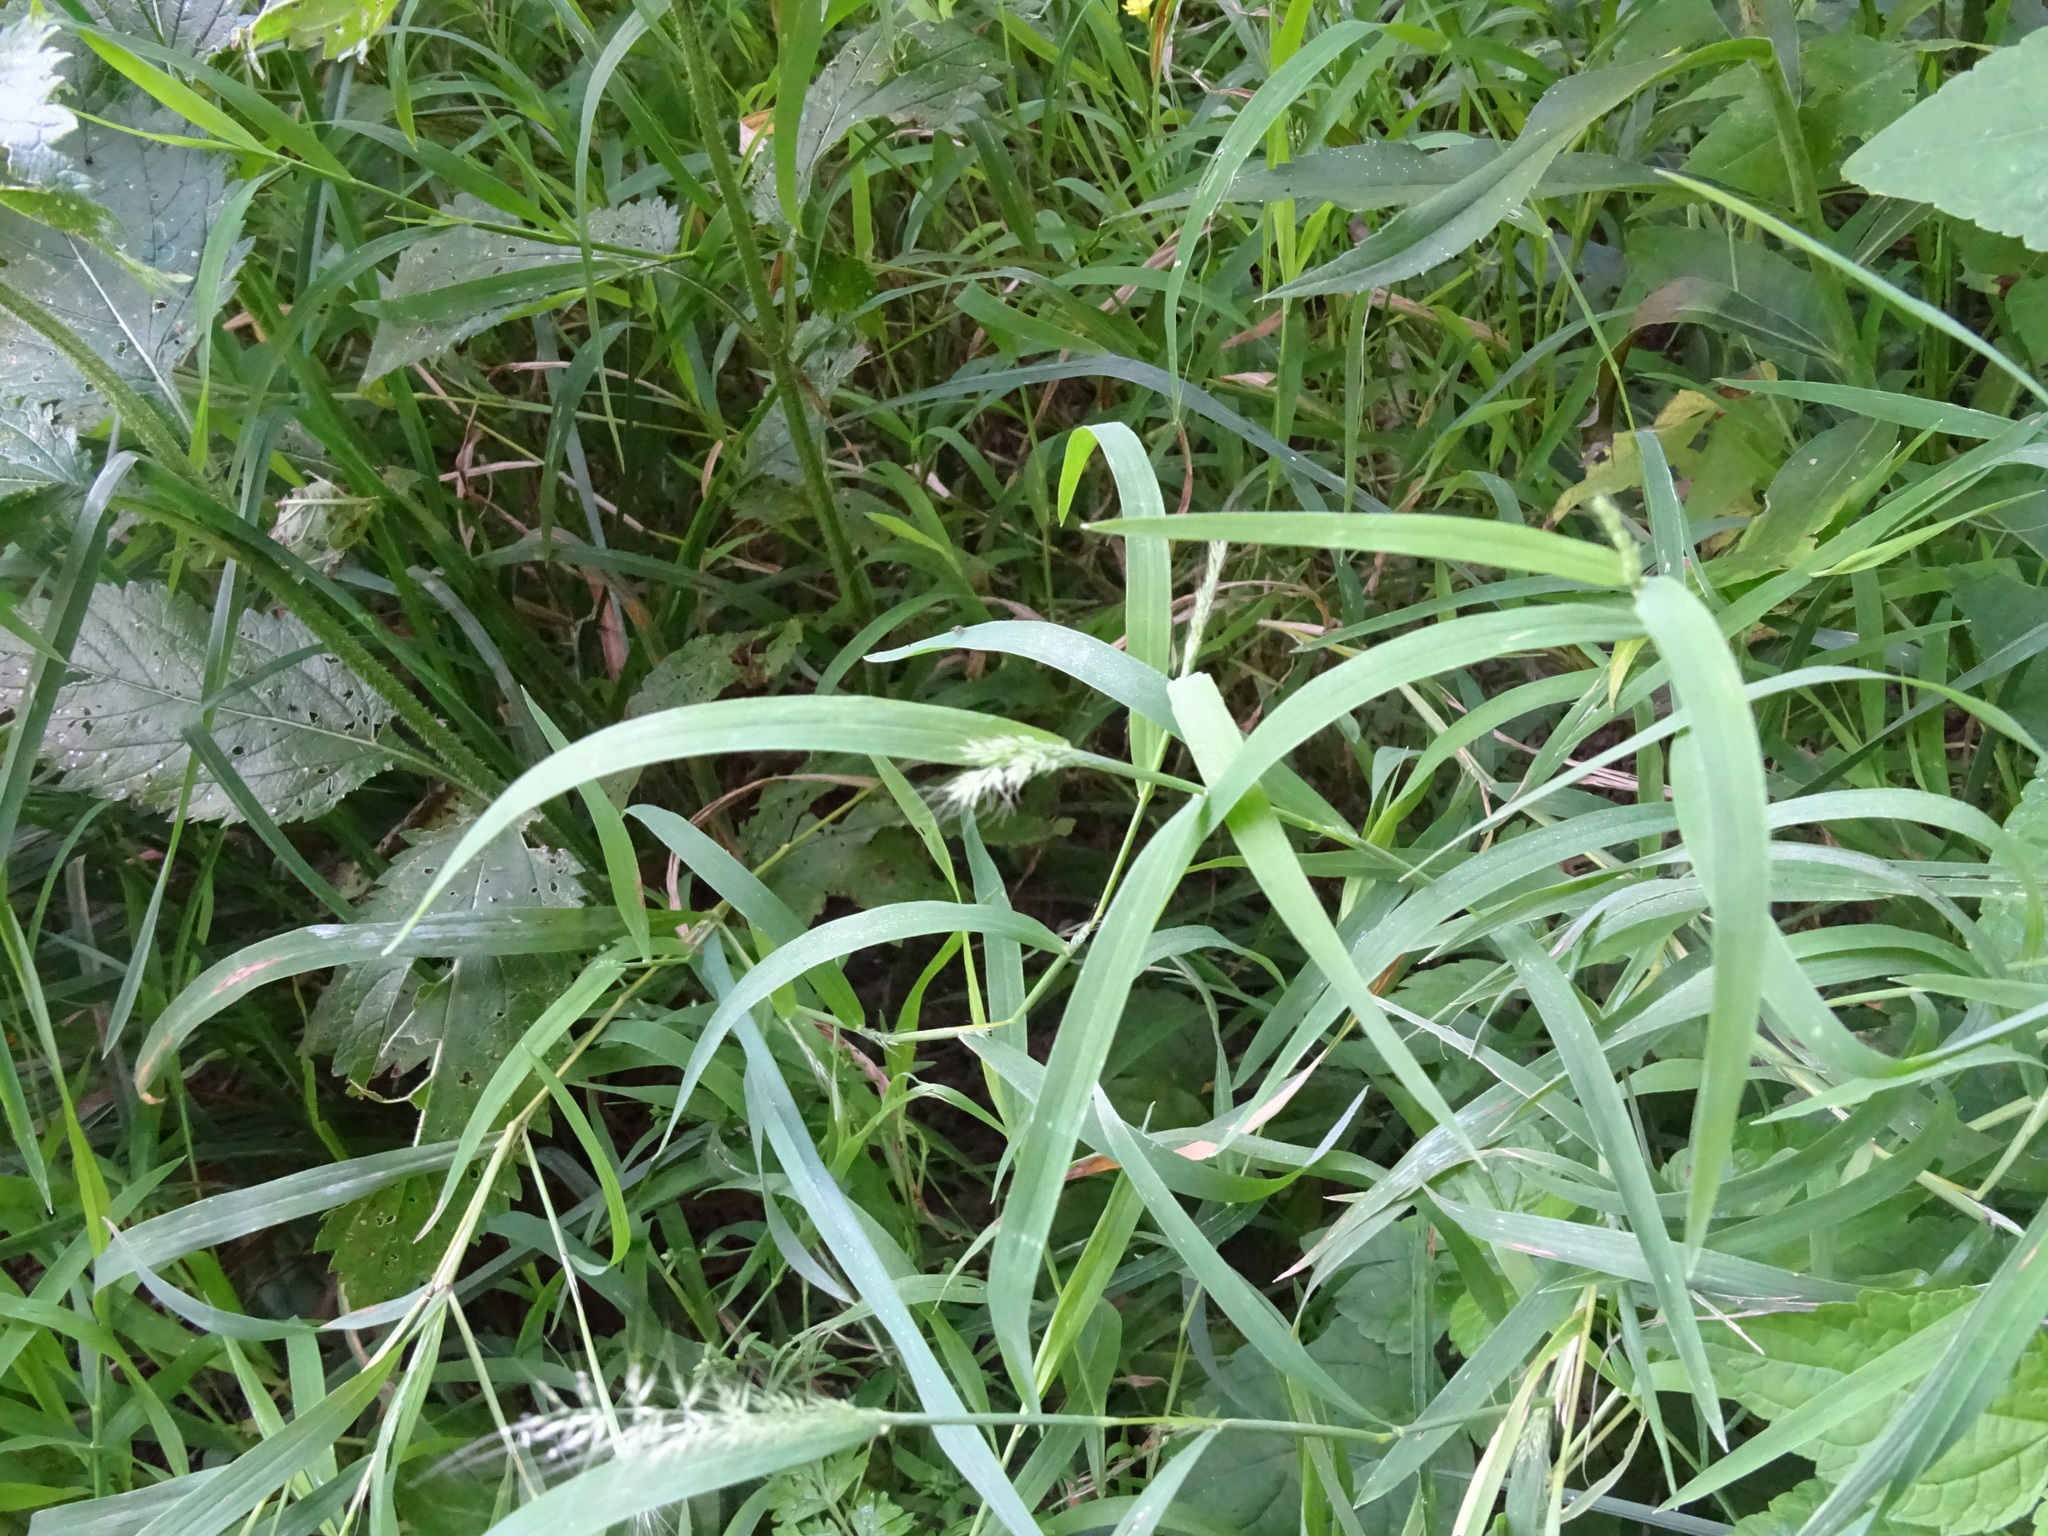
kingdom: Plantae
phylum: Tracheophyta
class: Liliopsida
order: Poales
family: Poaceae
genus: Muhlenbergia
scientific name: Muhlenbergia frondosa
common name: Common satingrass
